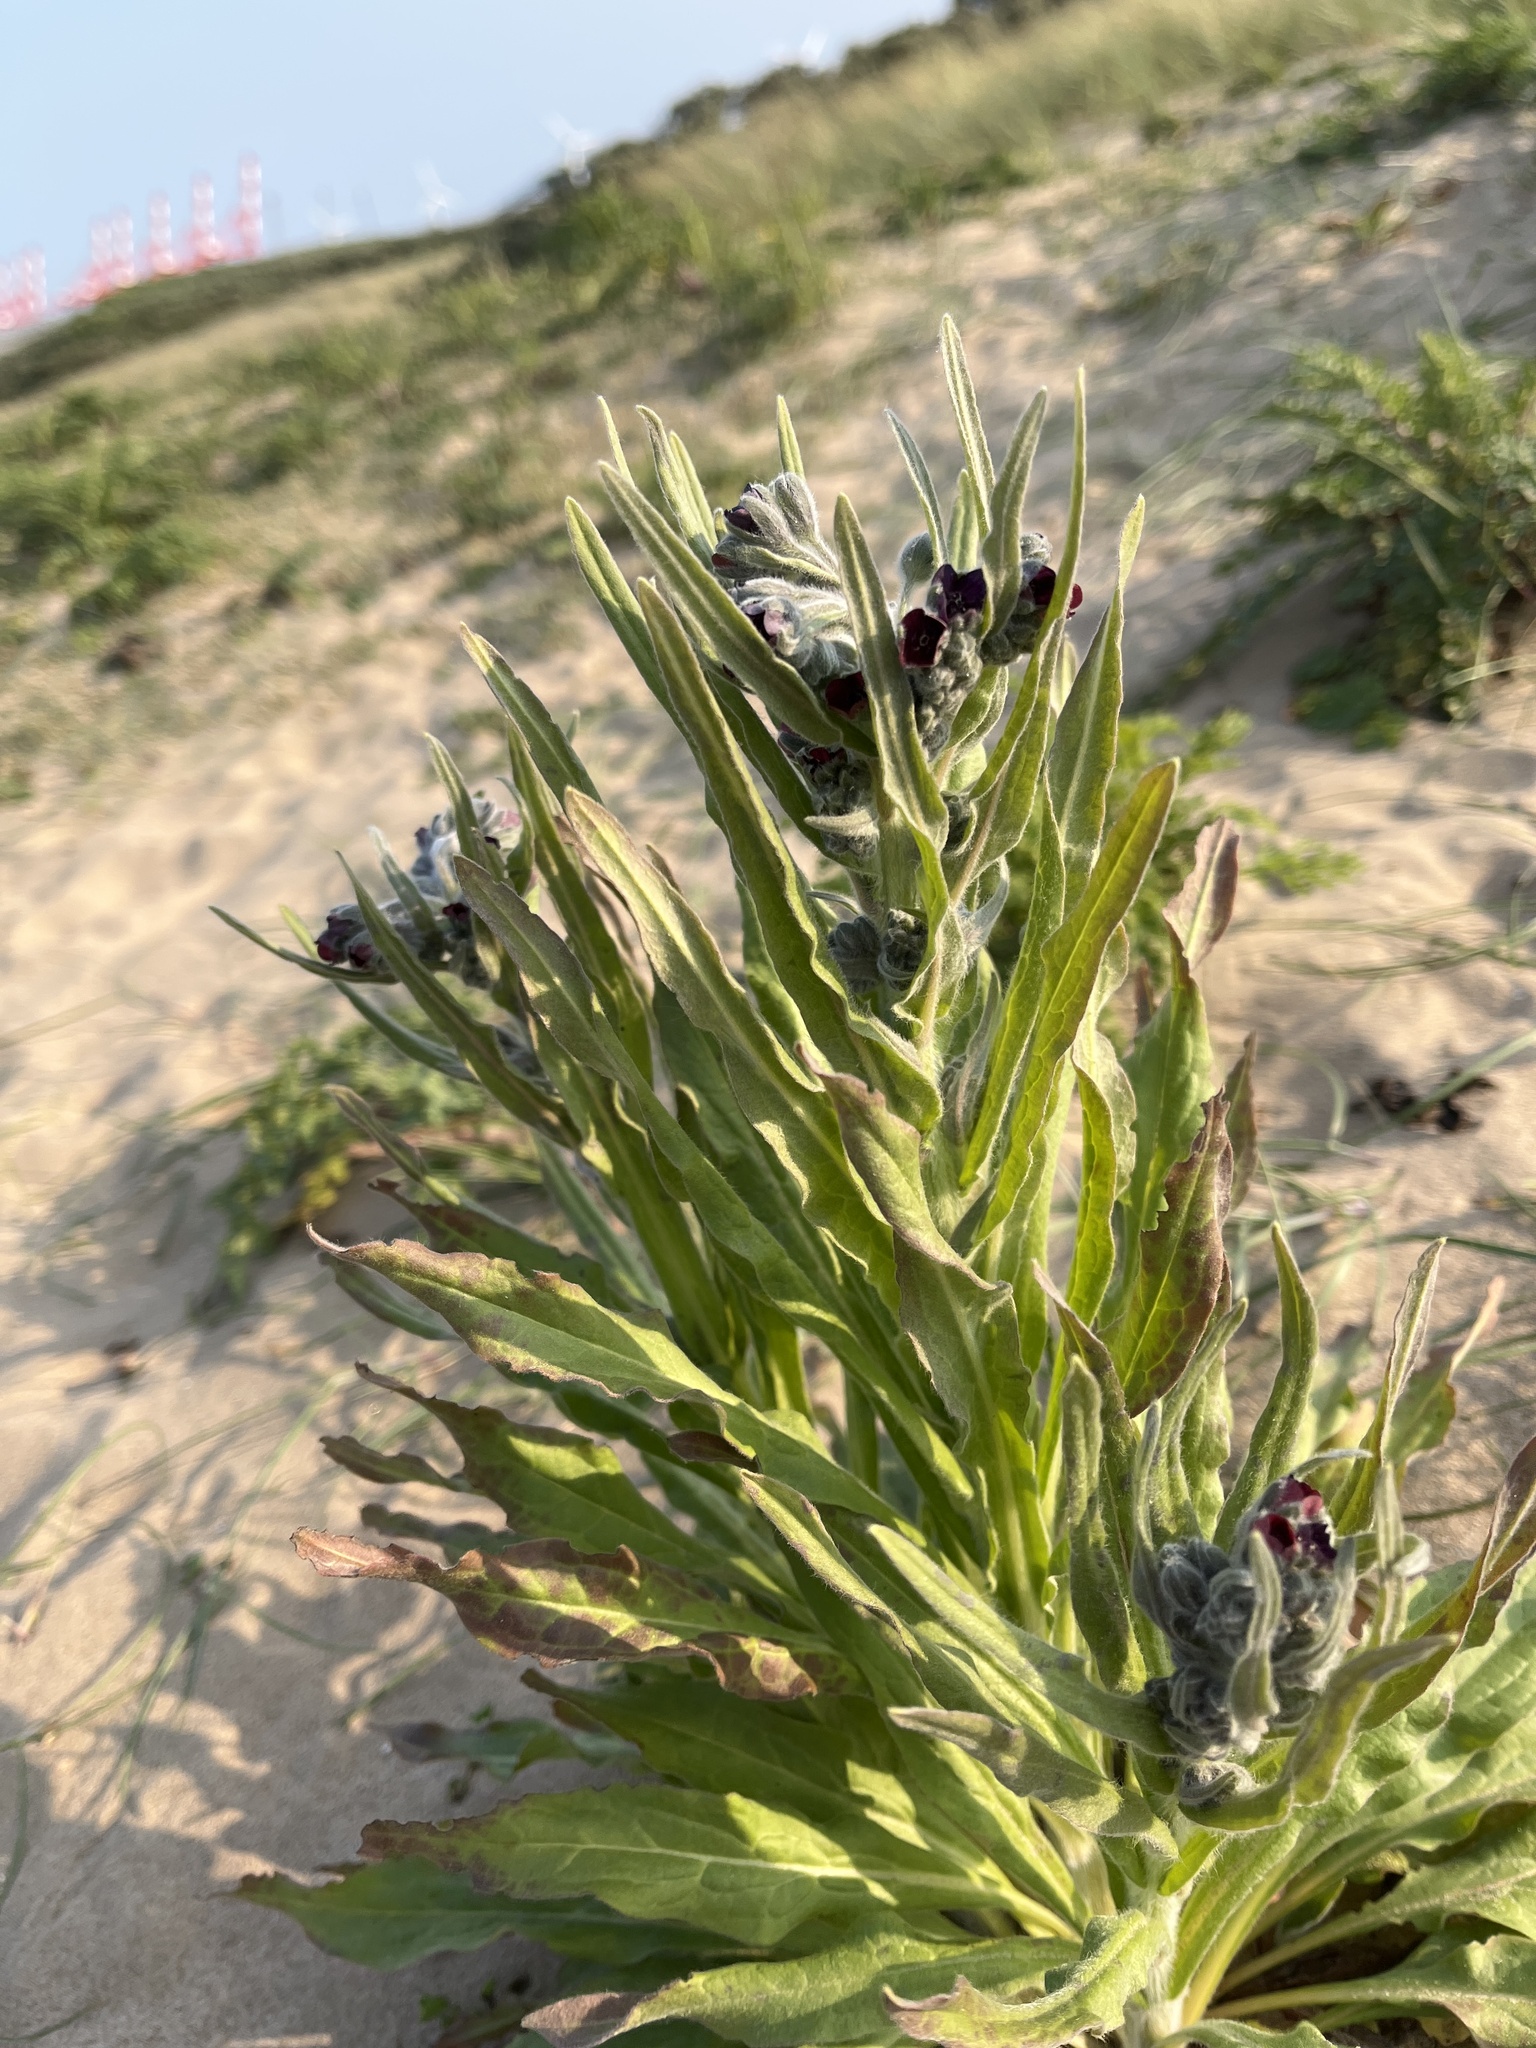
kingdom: Plantae
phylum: Tracheophyta
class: Magnoliopsida
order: Boraginales
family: Boraginaceae
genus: Cynoglossum
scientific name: Cynoglossum officinale
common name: Hound's-tongue
